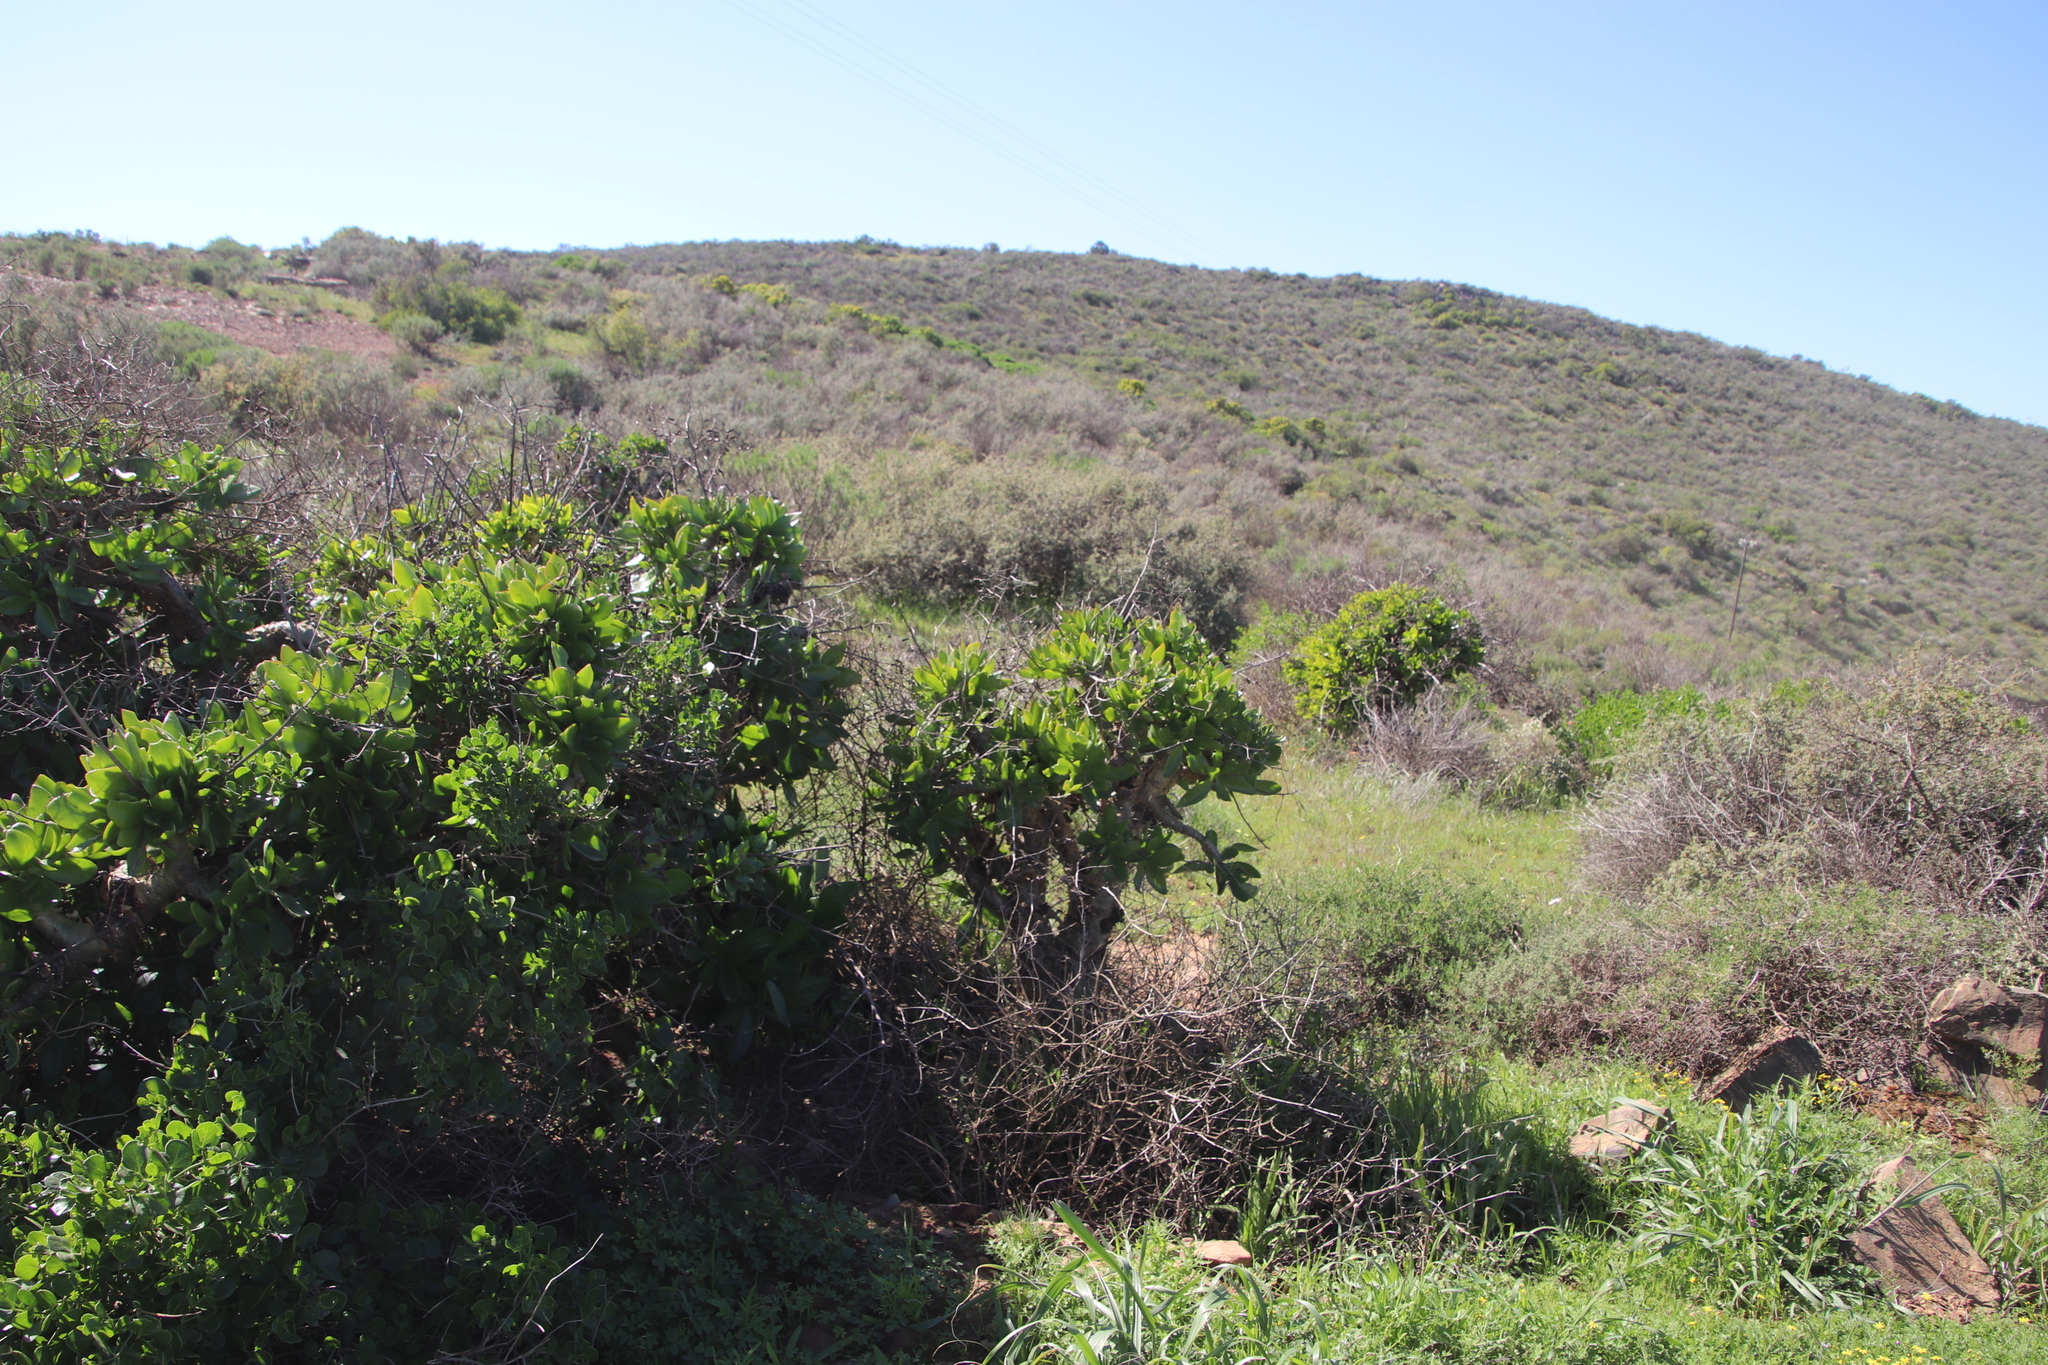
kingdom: Plantae
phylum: Tracheophyta
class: Magnoliopsida
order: Saxifragales
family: Crassulaceae
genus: Tylecodon
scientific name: Tylecodon paniculatus
